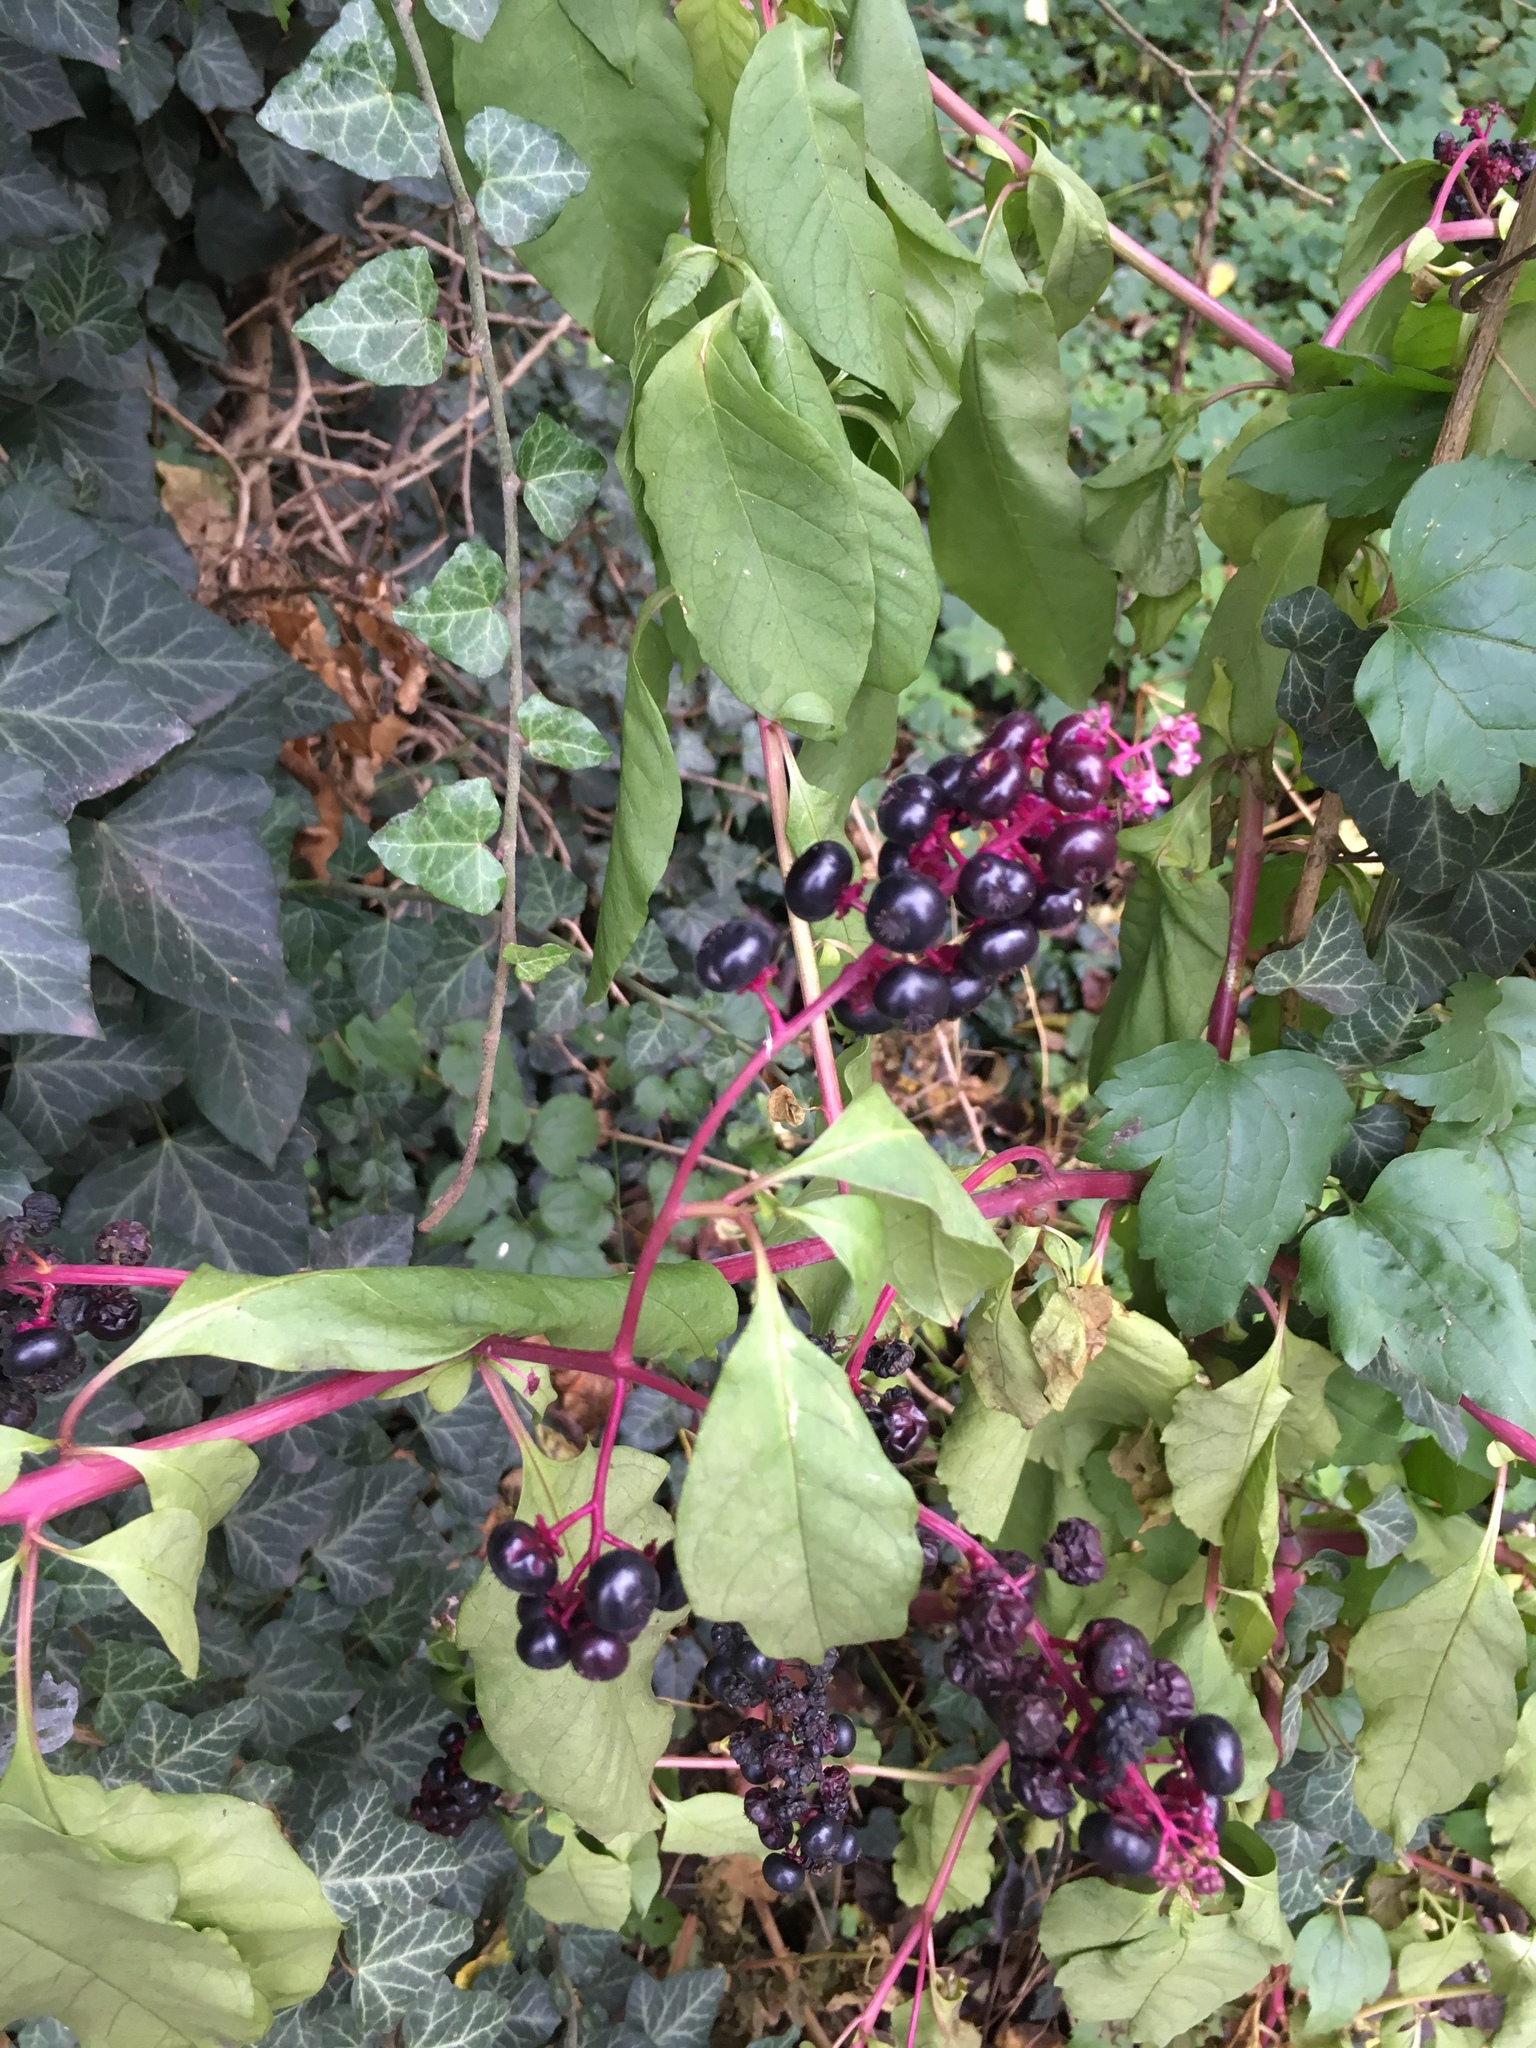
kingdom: Plantae
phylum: Tracheophyta
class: Magnoliopsida
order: Caryophyllales
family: Phytolaccaceae
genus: Phytolacca
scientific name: Phytolacca americana
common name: American pokeweed
